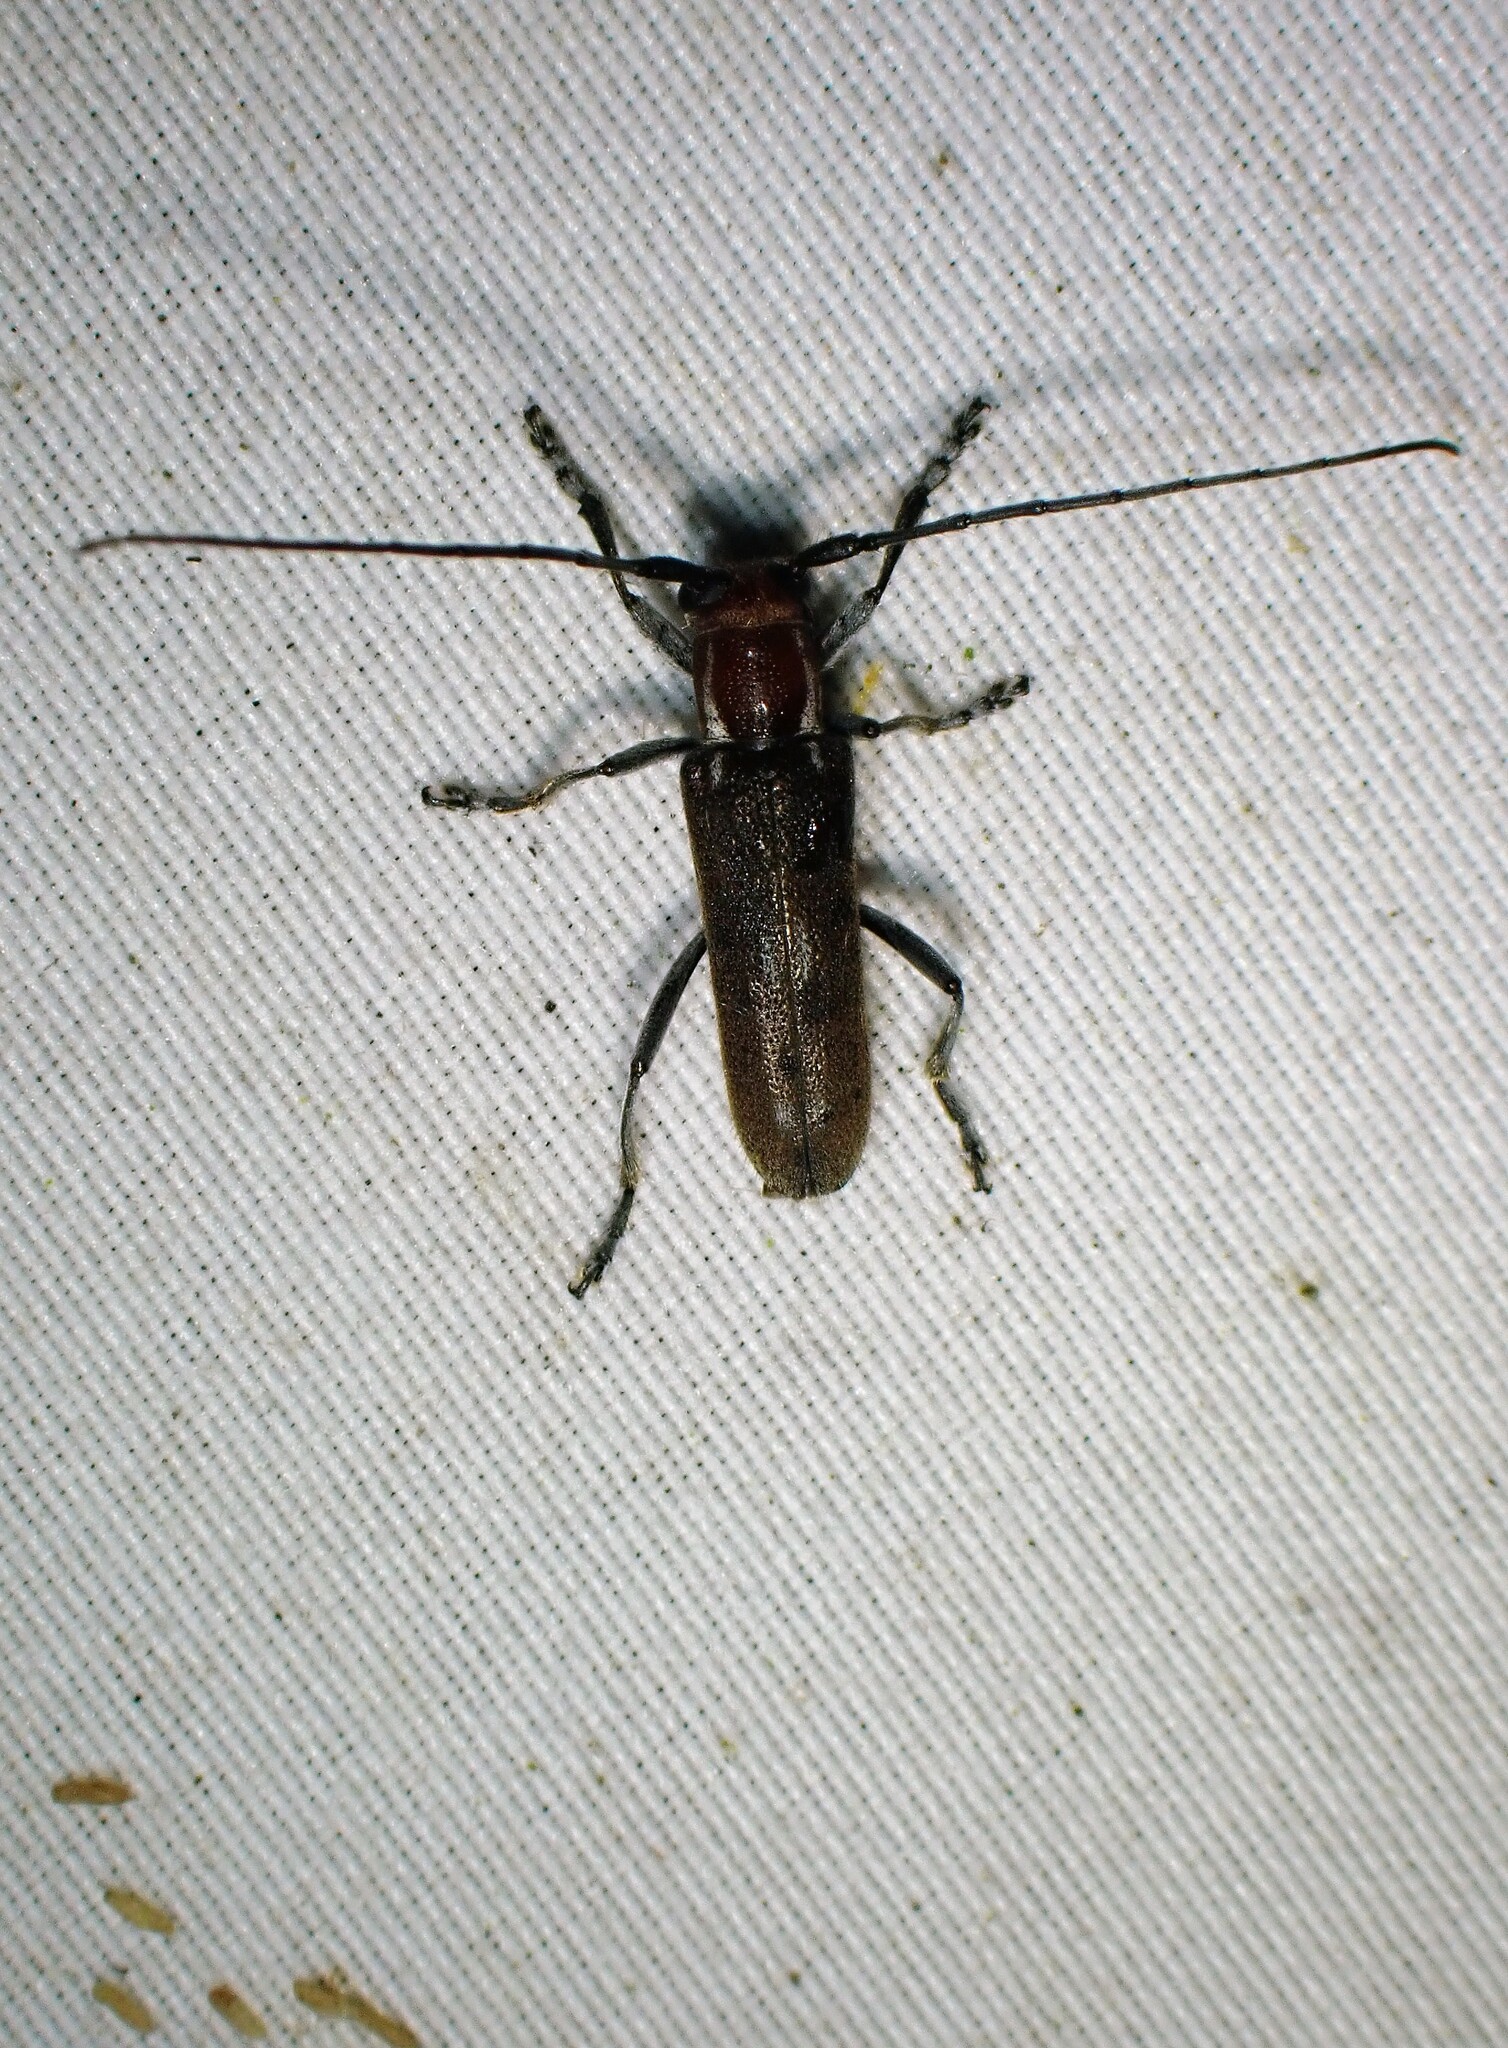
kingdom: Animalia
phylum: Arthropoda
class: Insecta
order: Coleoptera
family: Cerambycidae
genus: Saperda
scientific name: Saperda fayi
